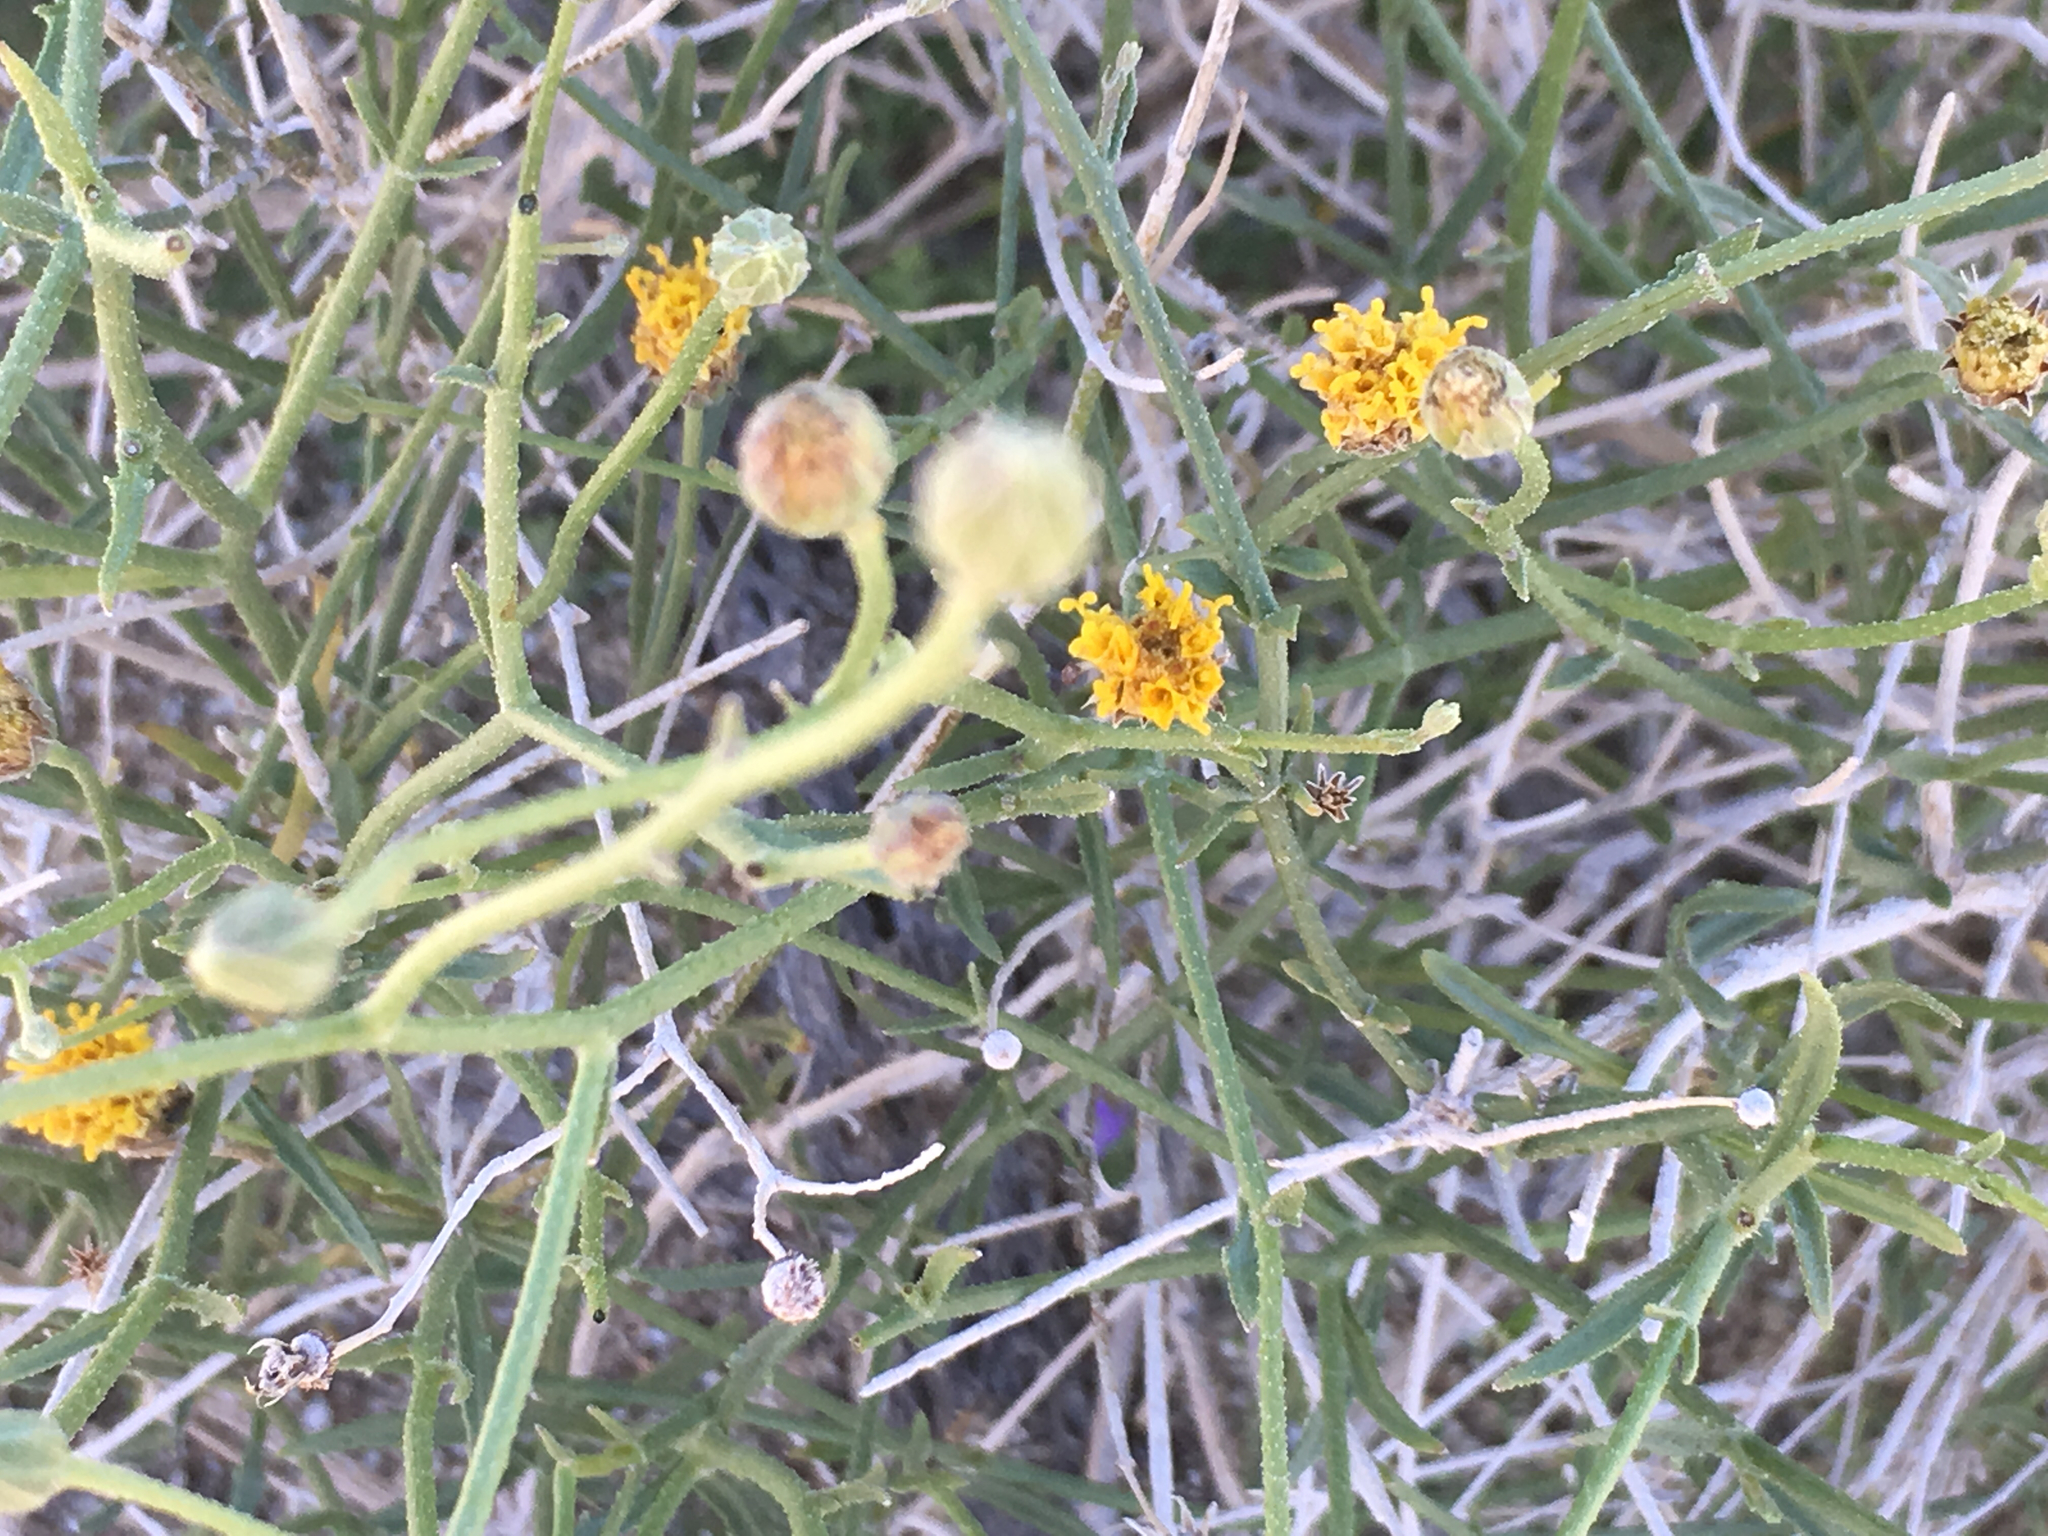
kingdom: Plantae
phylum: Tracheophyta
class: Magnoliopsida
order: Asterales
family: Asteraceae
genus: Bebbia
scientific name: Bebbia juncea
